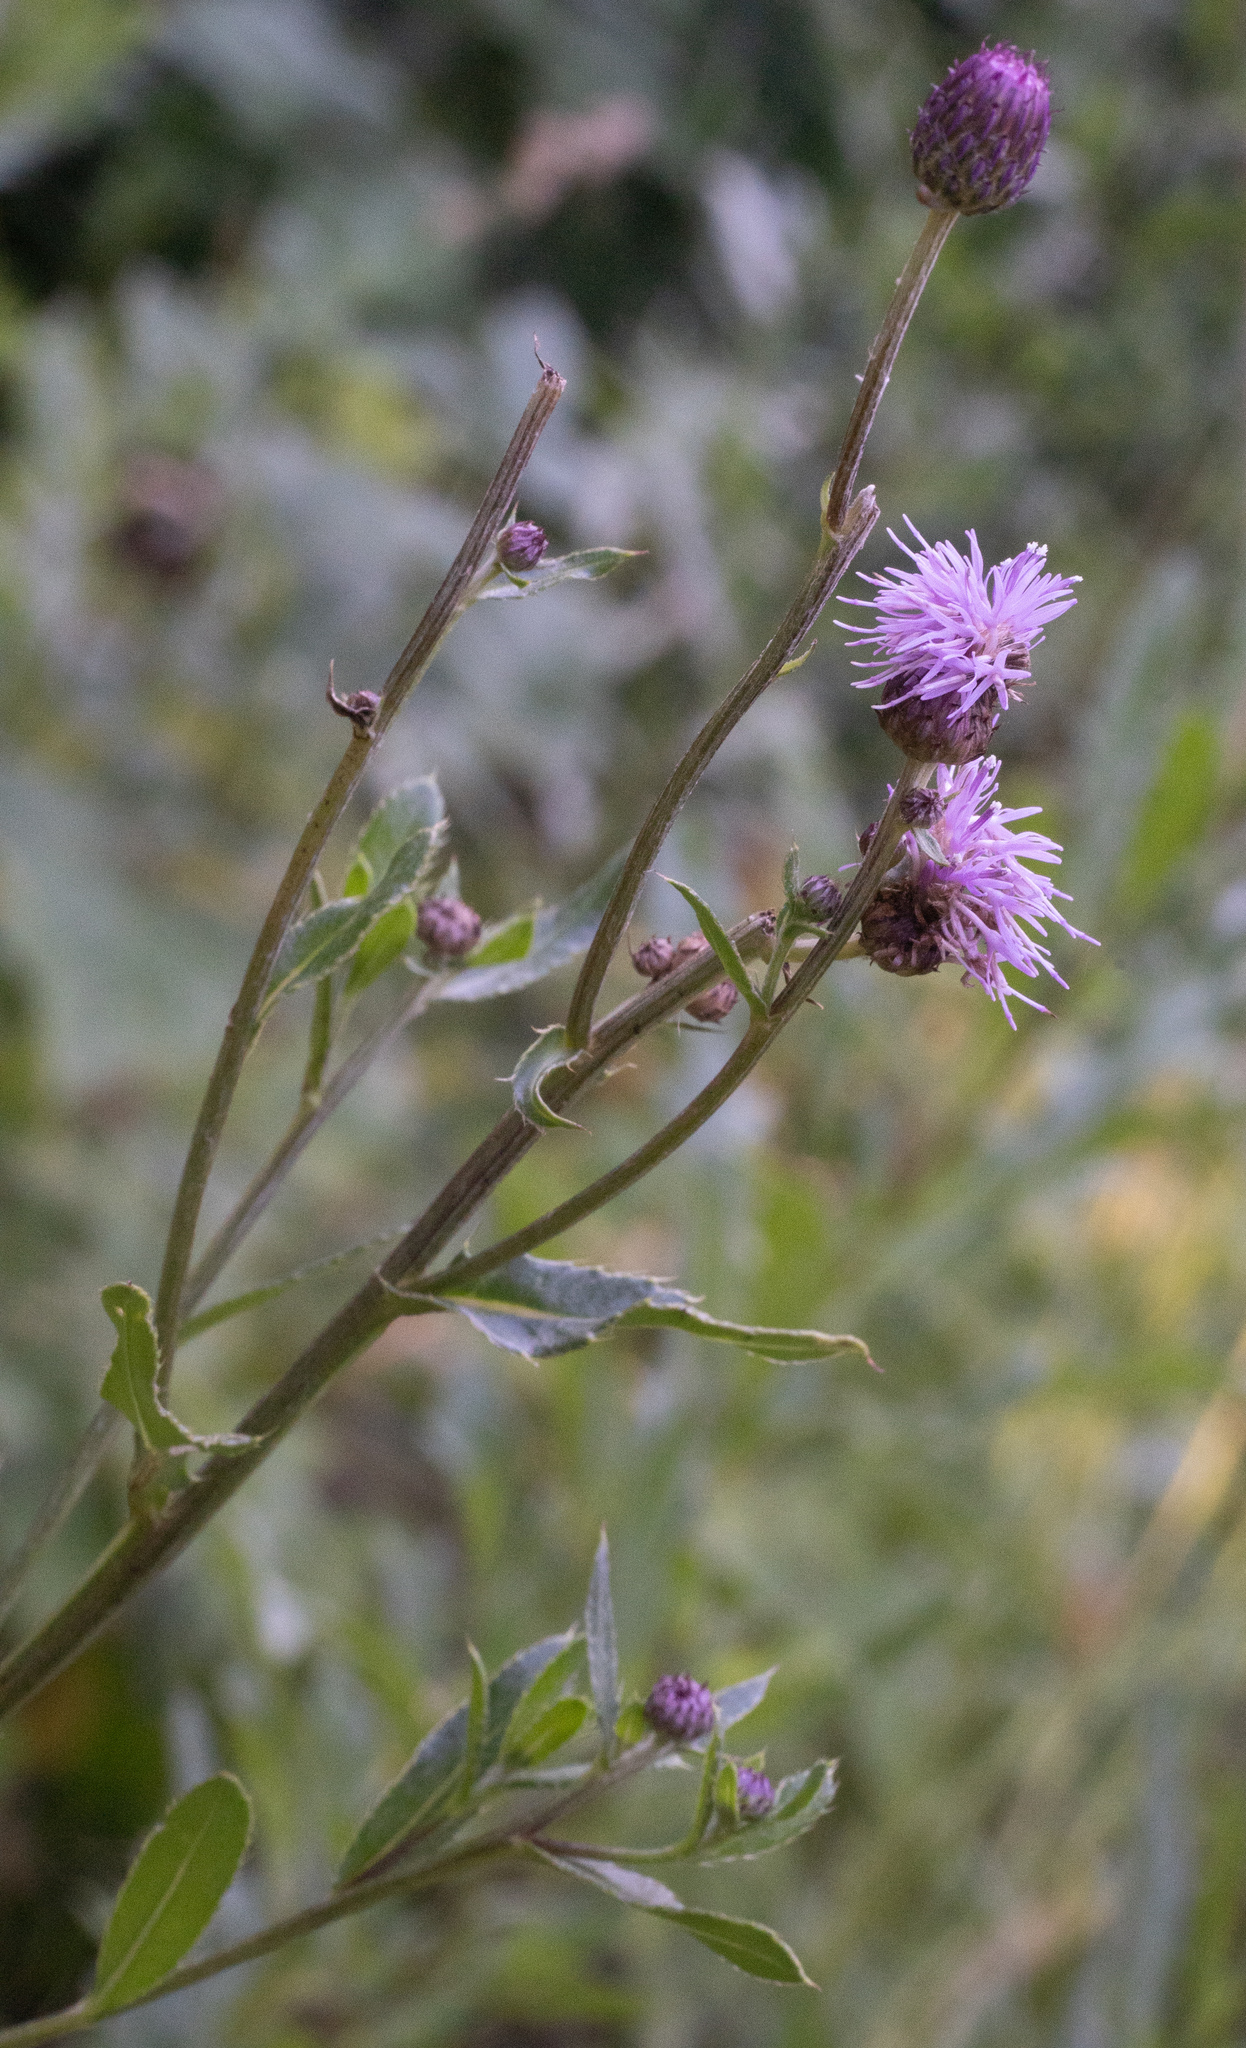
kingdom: Plantae
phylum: Tracheophyta
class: Magnoliopsida
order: Asterales
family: Asteraceae
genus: Cirsium
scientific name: Cirsium arvense
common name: Creeping thistle
